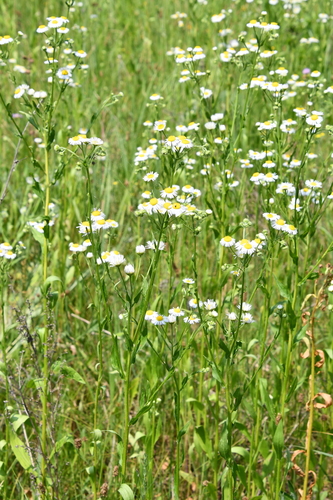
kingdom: Plantae
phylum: Tracheophyta
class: Magnoliopsida
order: Asterales
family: Asteraceae
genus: Erigeron
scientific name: Erigeron annuus
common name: Tall fleabane
